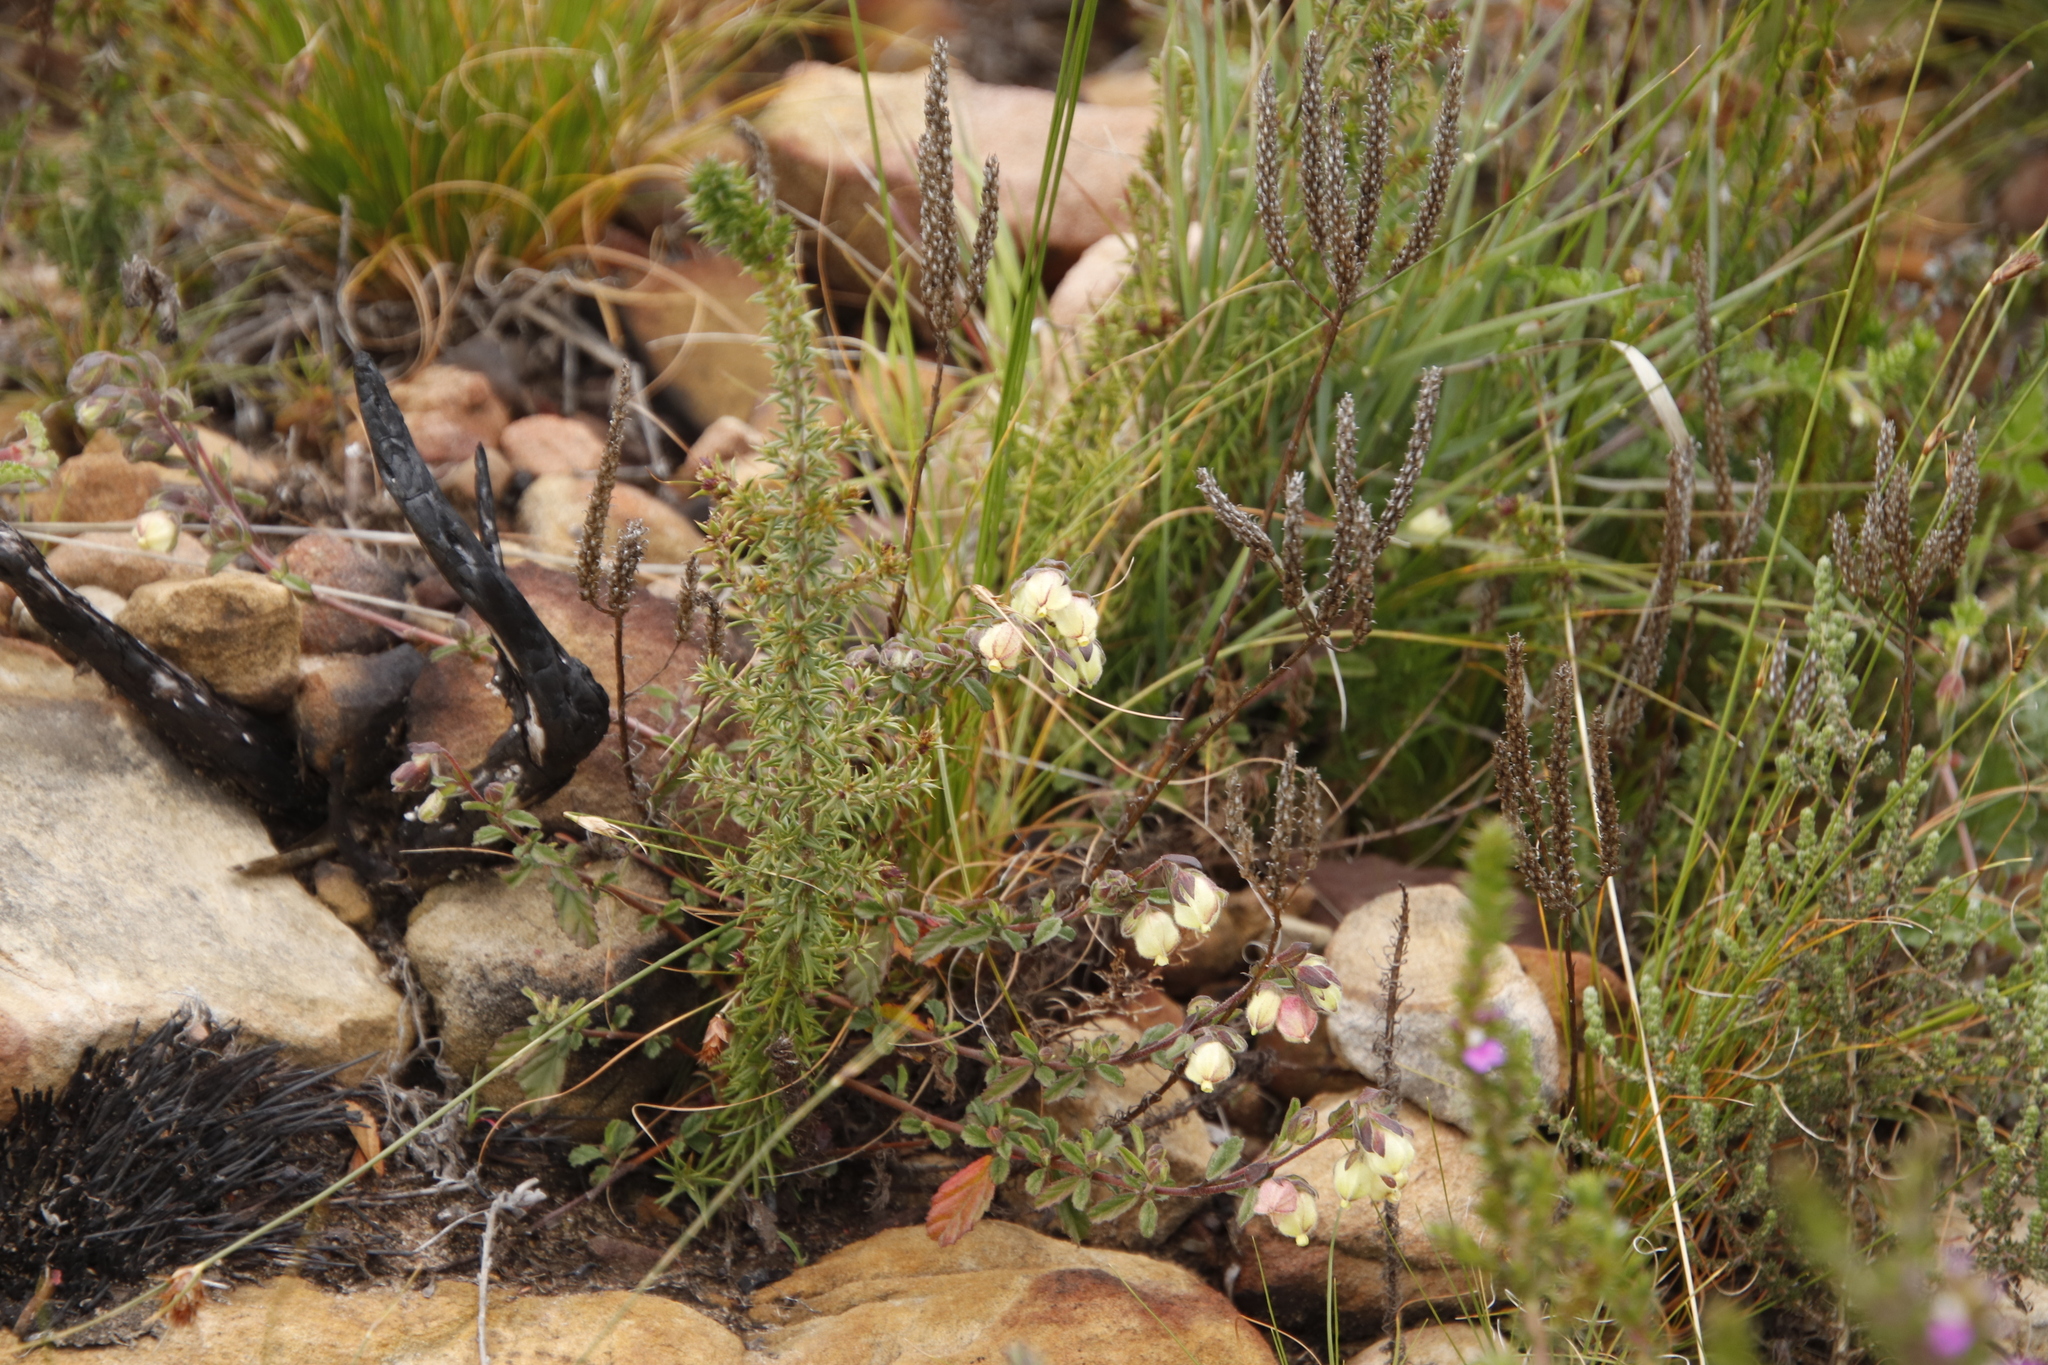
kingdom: Plantae
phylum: Tracheophyta
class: Magnoliopsida
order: Malvales
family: Malvaceae
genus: Hermannia
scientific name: Hermannia hyssopifolia
